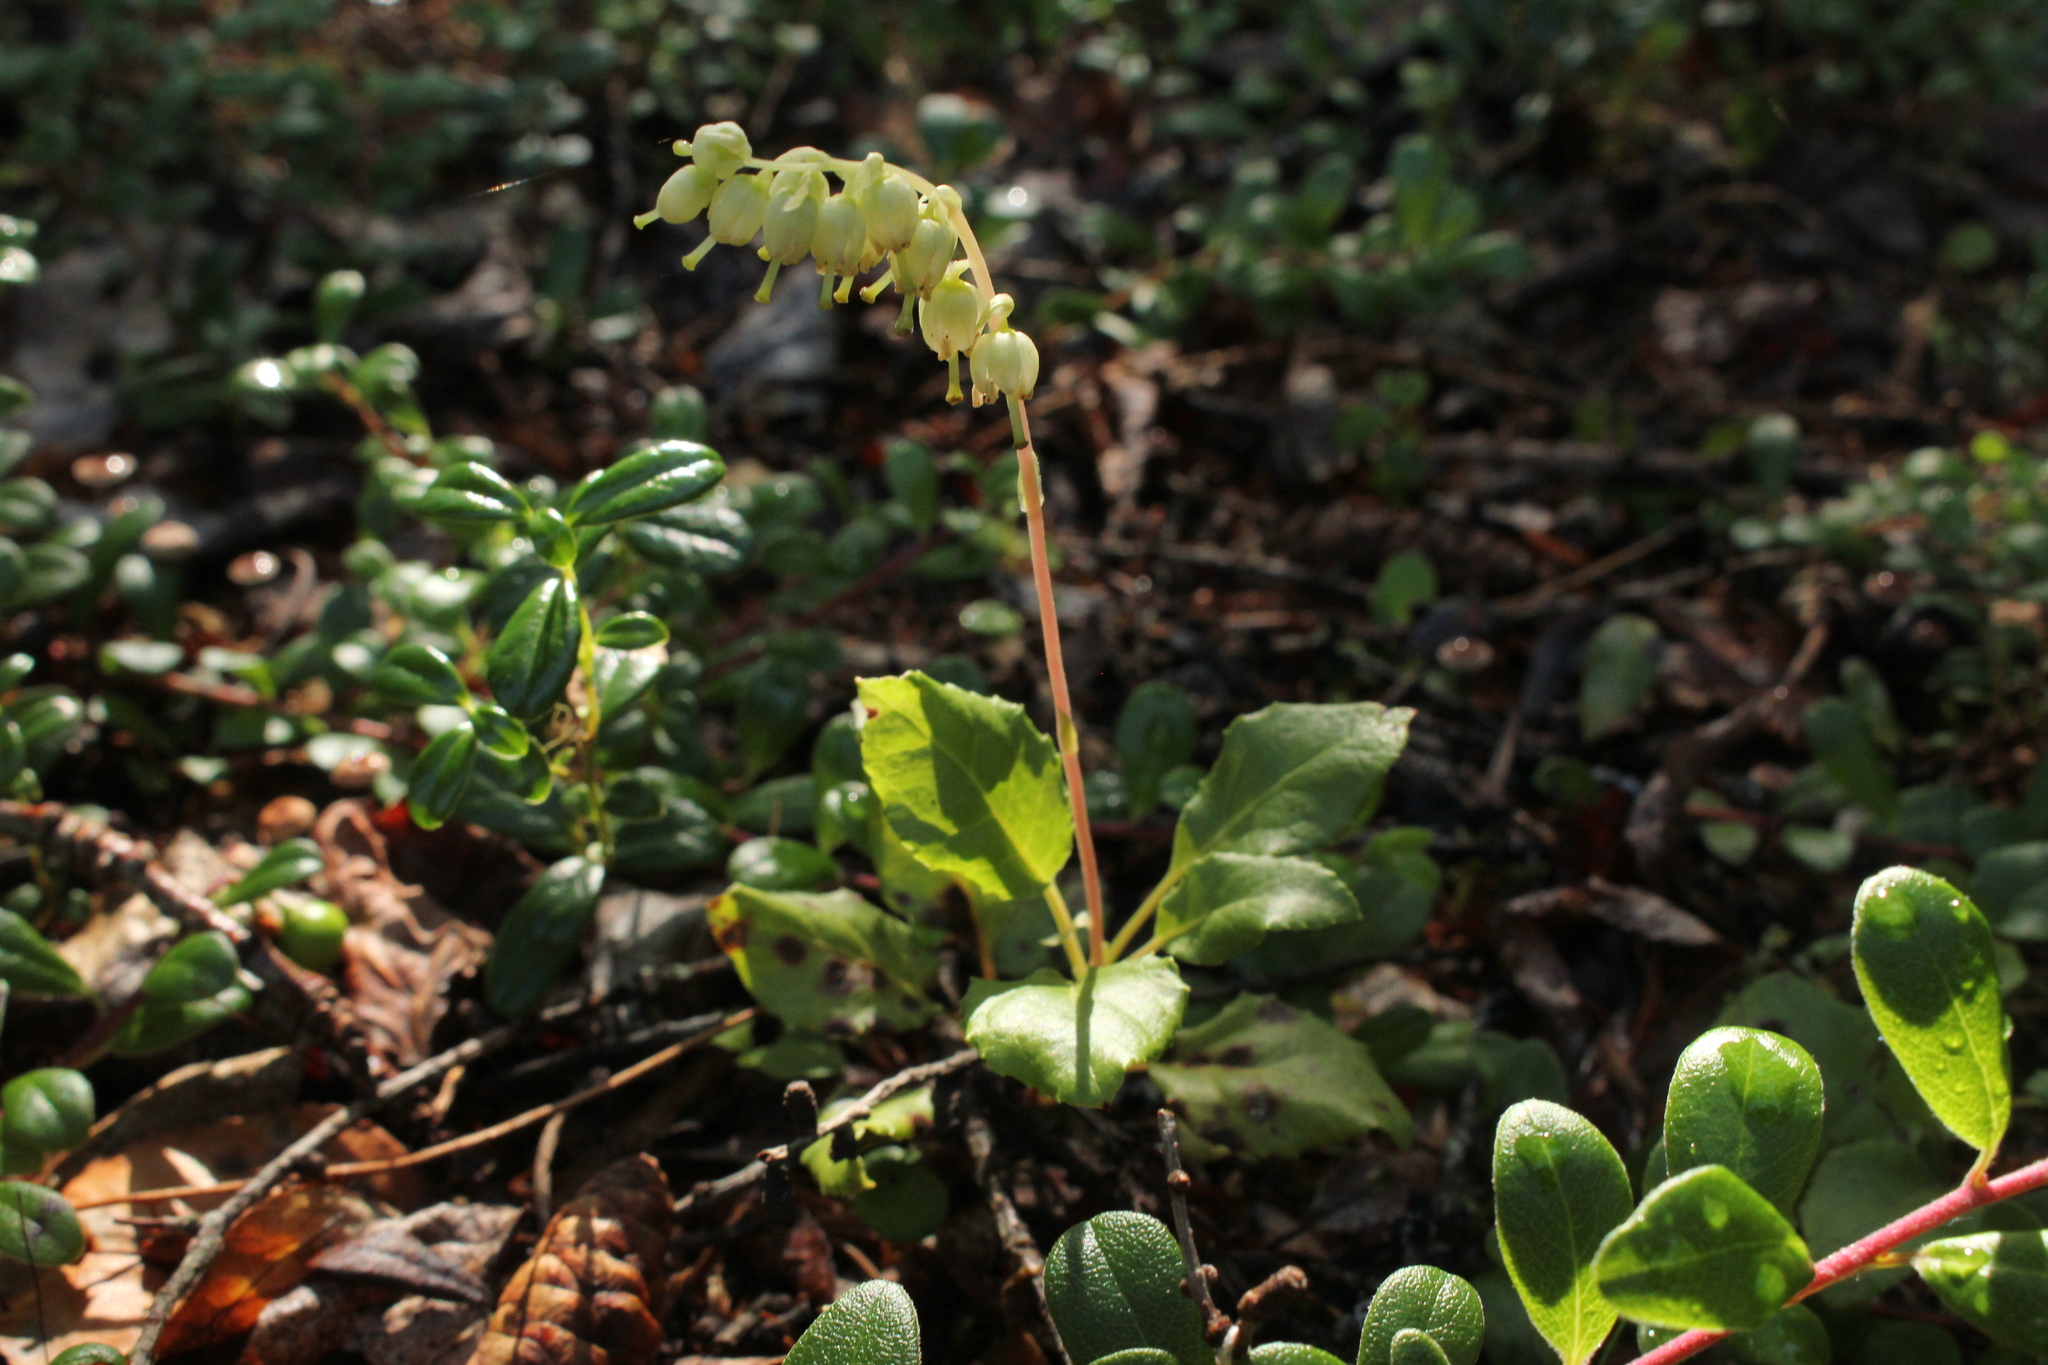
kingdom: Plantae
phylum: Tracheophyta
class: Magnoliopsida
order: Ericales
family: Ericaceae
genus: Orthilia
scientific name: Orthilia secunda
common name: One-sided orthilia
